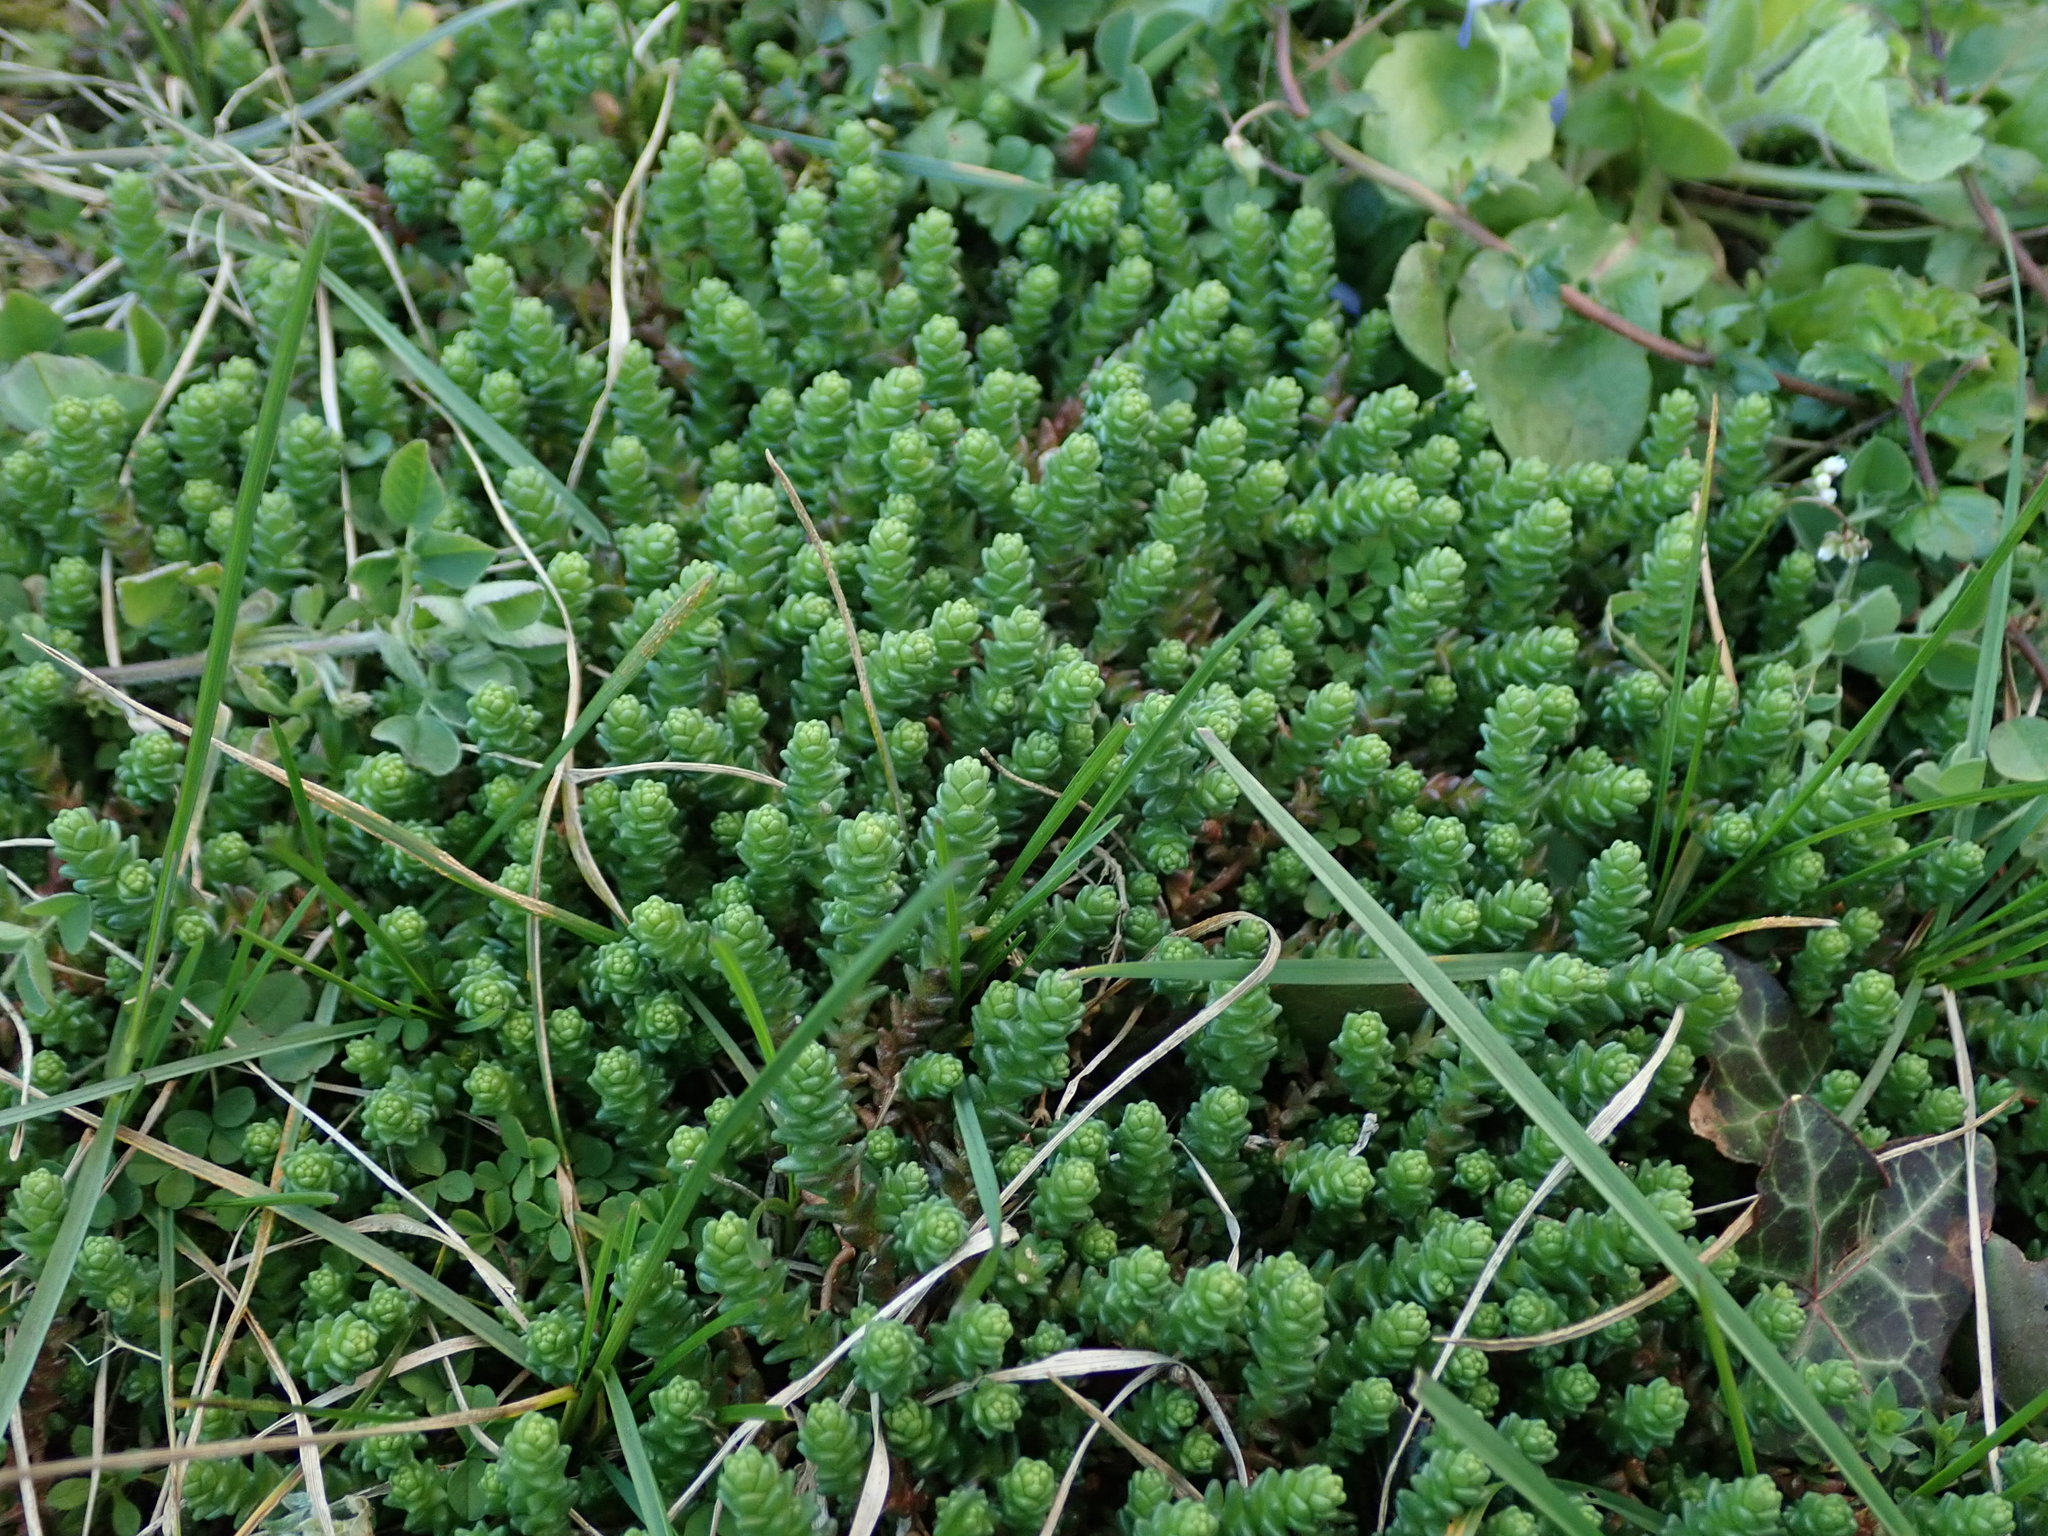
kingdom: Plantae
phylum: Tracheophyta
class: Magnoliopsida
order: Saxifragales
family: Crassulaceae
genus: Sedum
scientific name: Sedum acre
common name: Biting stonecrop
